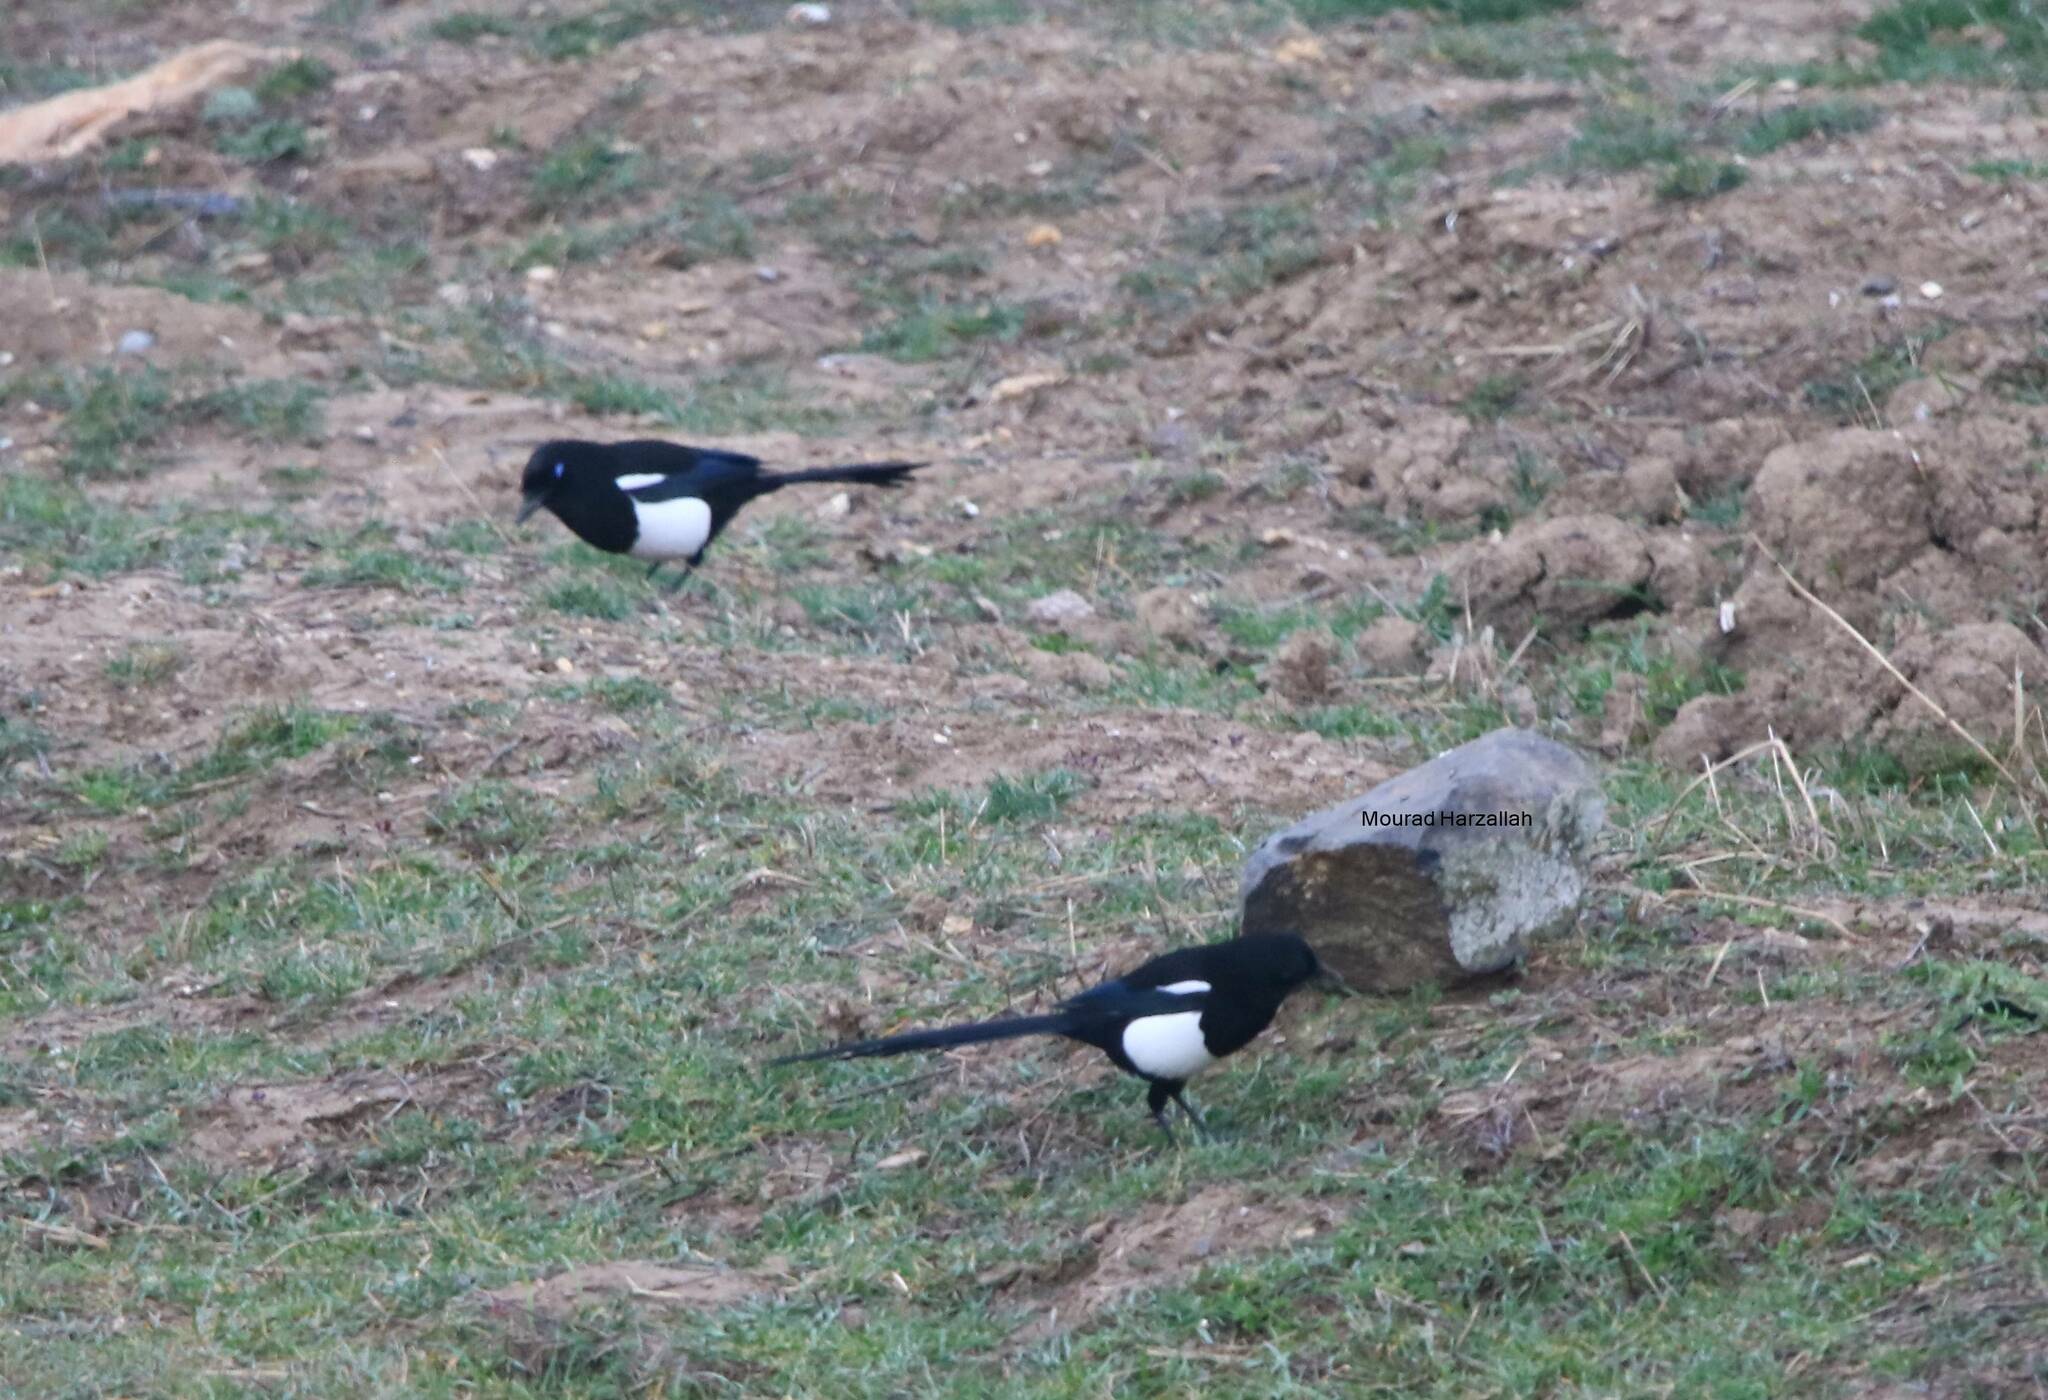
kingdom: Animalia
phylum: Chordata
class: Aves
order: Passeriformes
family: Corvidae
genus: Pica
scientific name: Pica mauritanica
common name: Maghreb magpie
